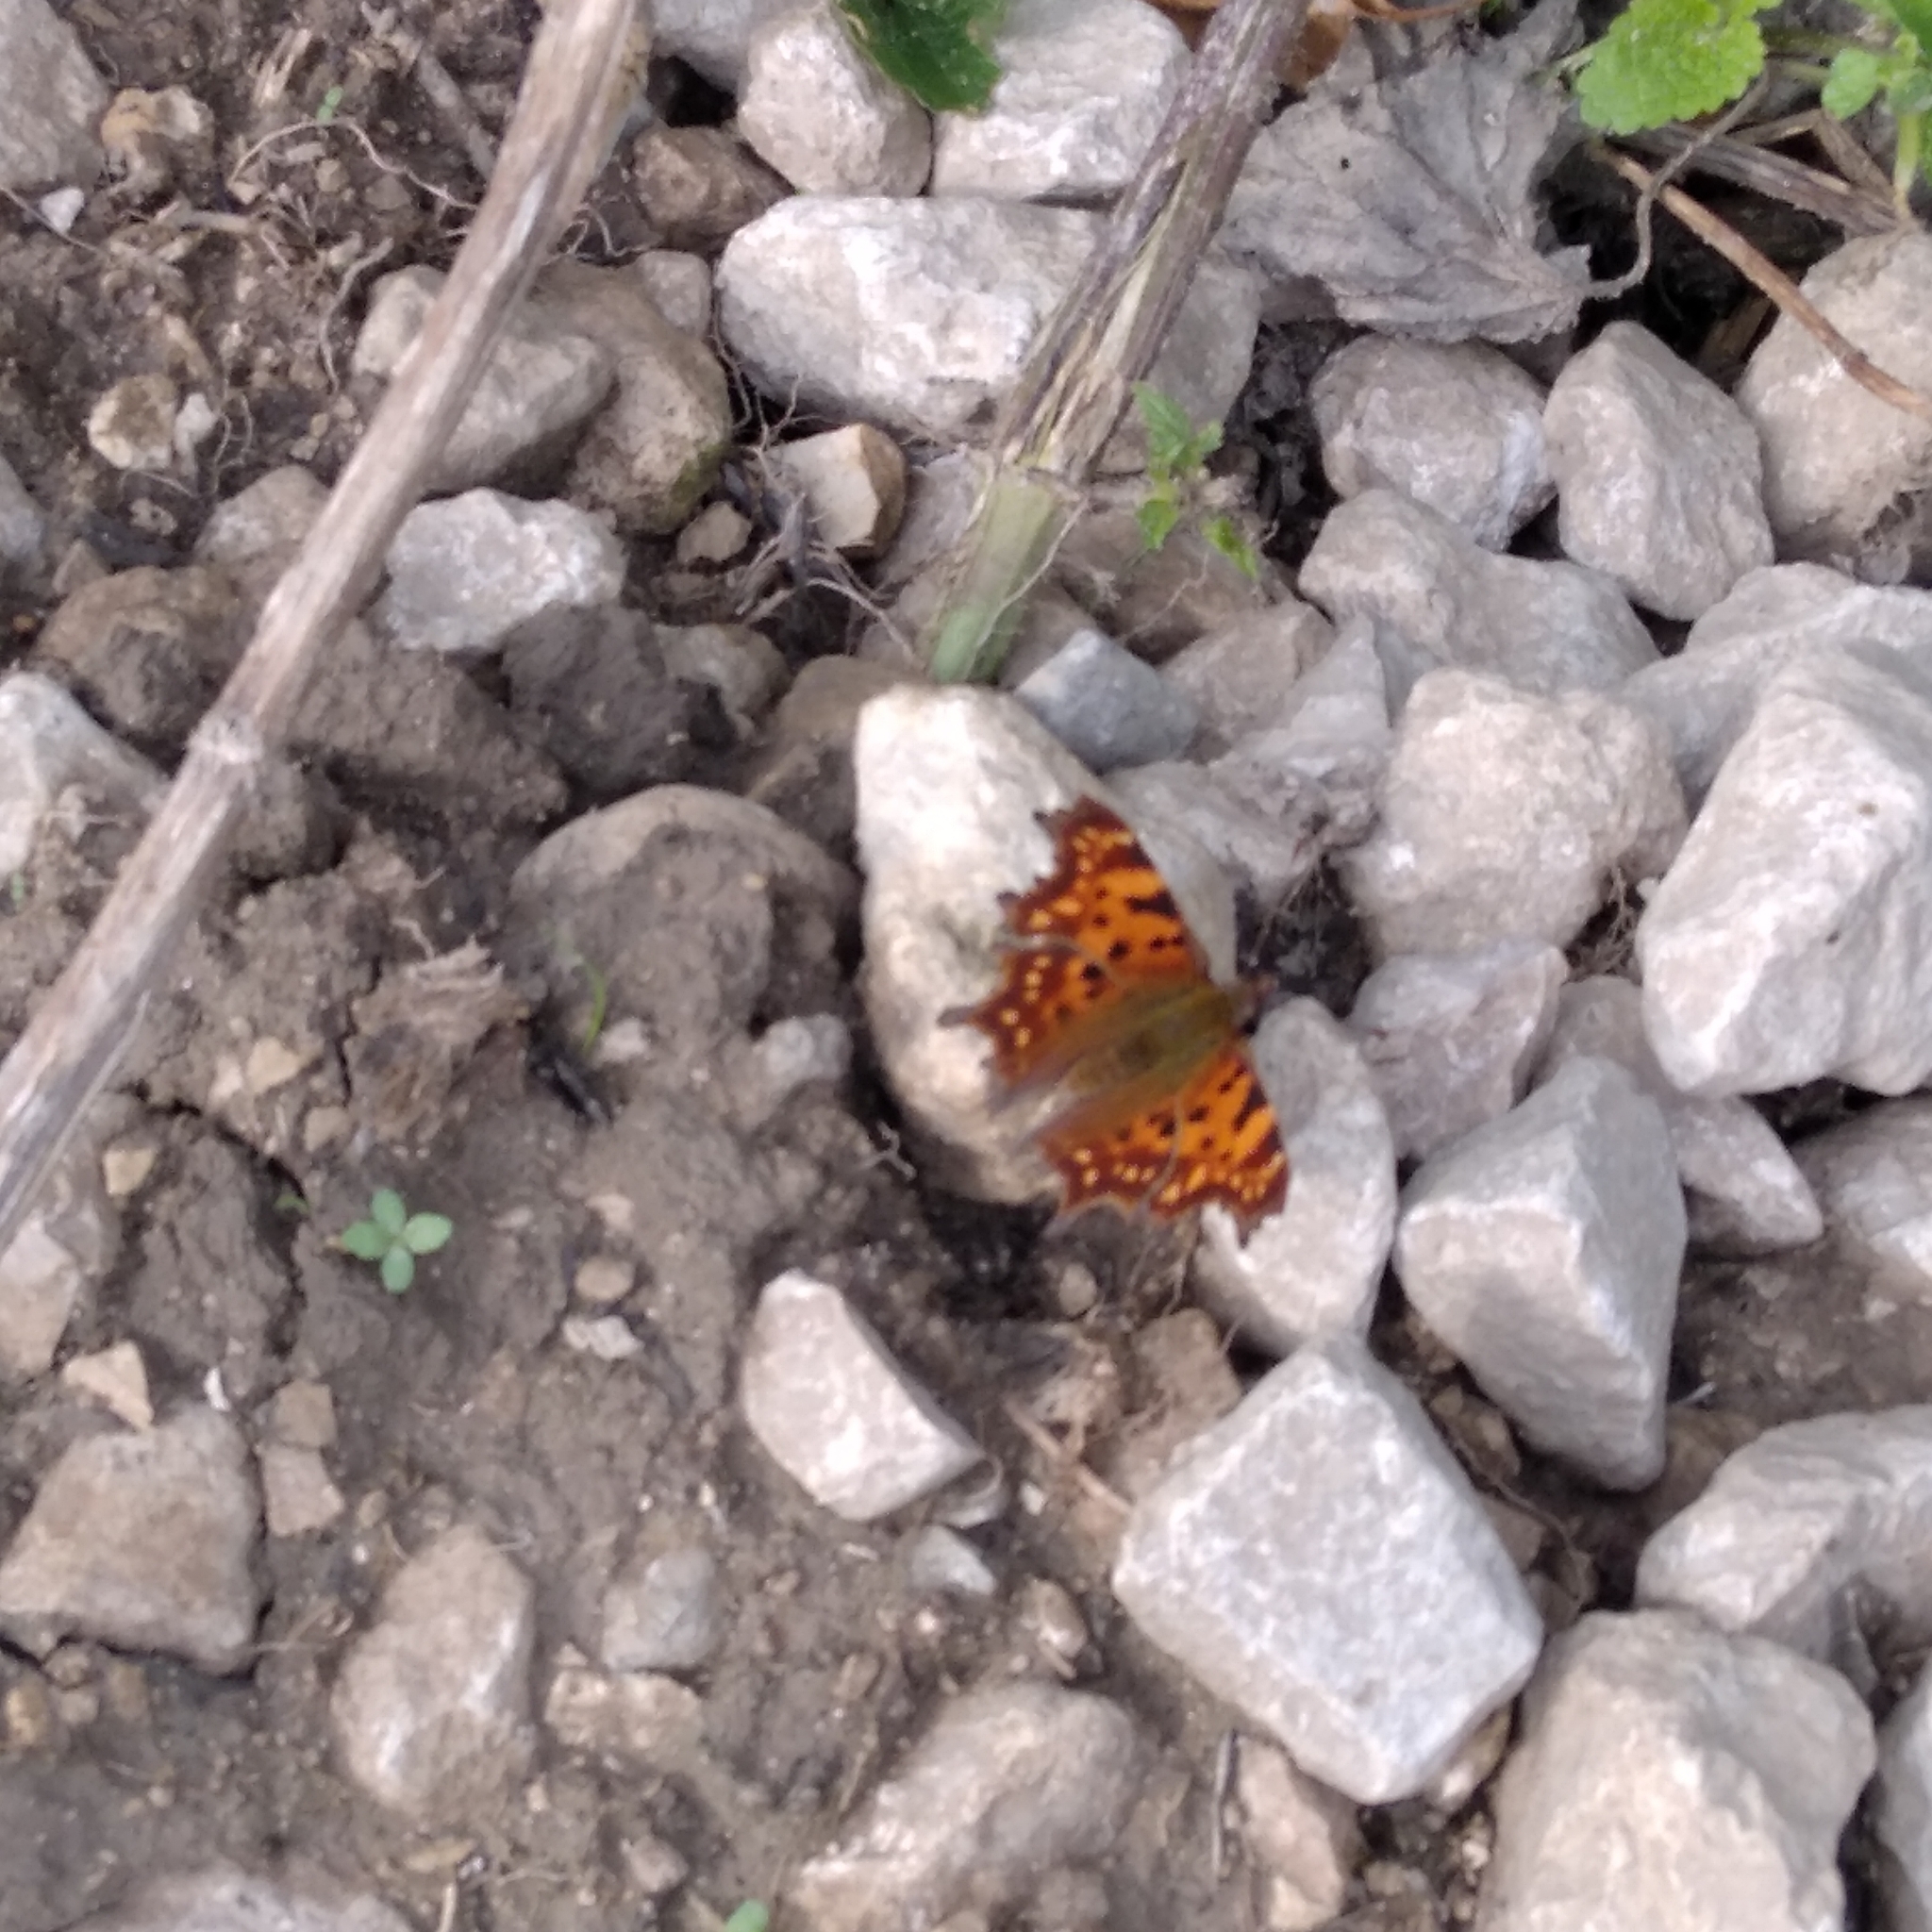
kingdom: Animalia
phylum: Arthropoda
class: Insecta
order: Lepidoptera
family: Nymphalidae
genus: Polygonia
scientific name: Polygonia c-album
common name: Comma
